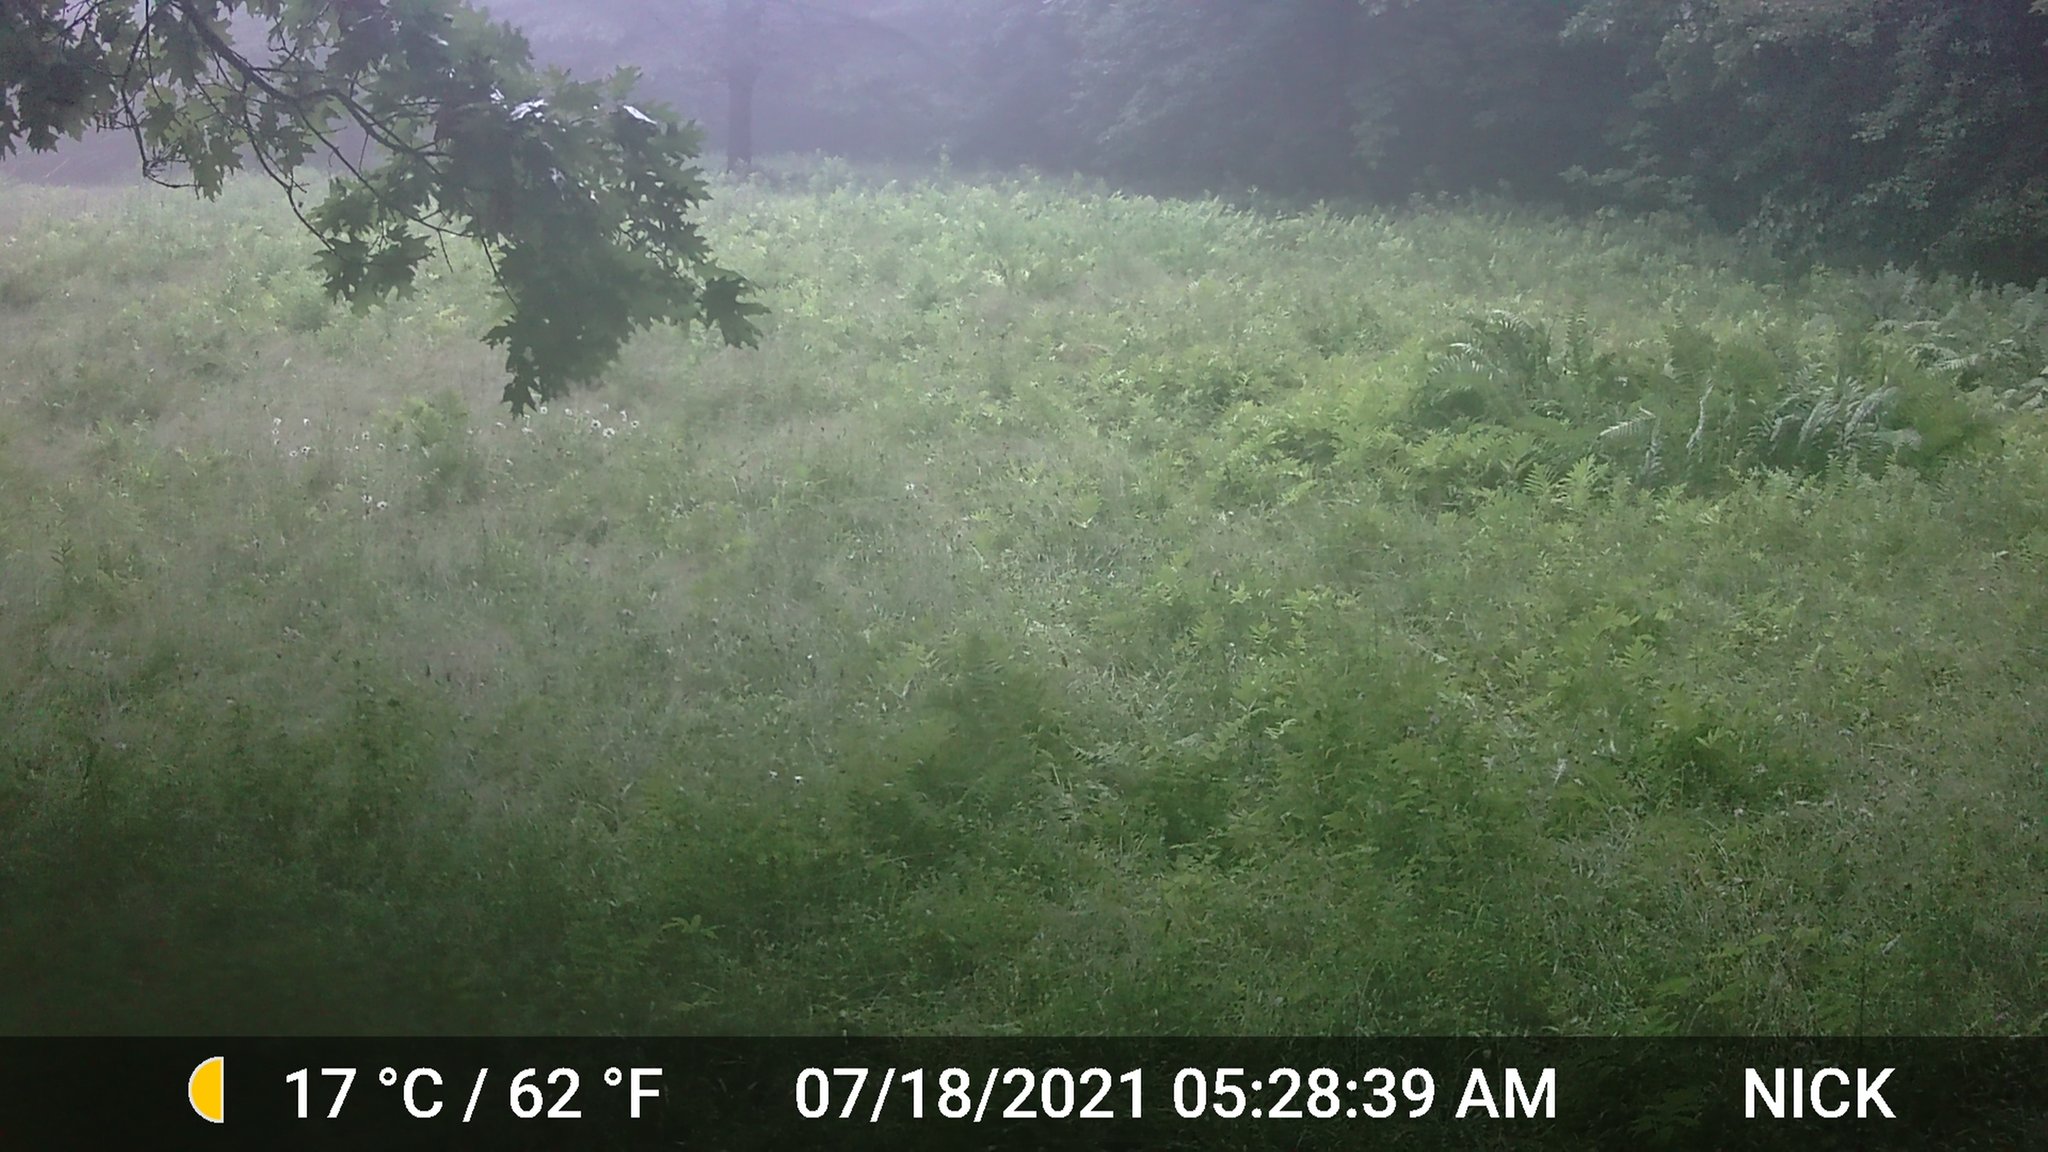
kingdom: Animalia
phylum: Chordata
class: Mammalia
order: Artiodactyla
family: Cervidae
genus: Odocoileus
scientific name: Odocoileus virginianus
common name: White-tailed deer
